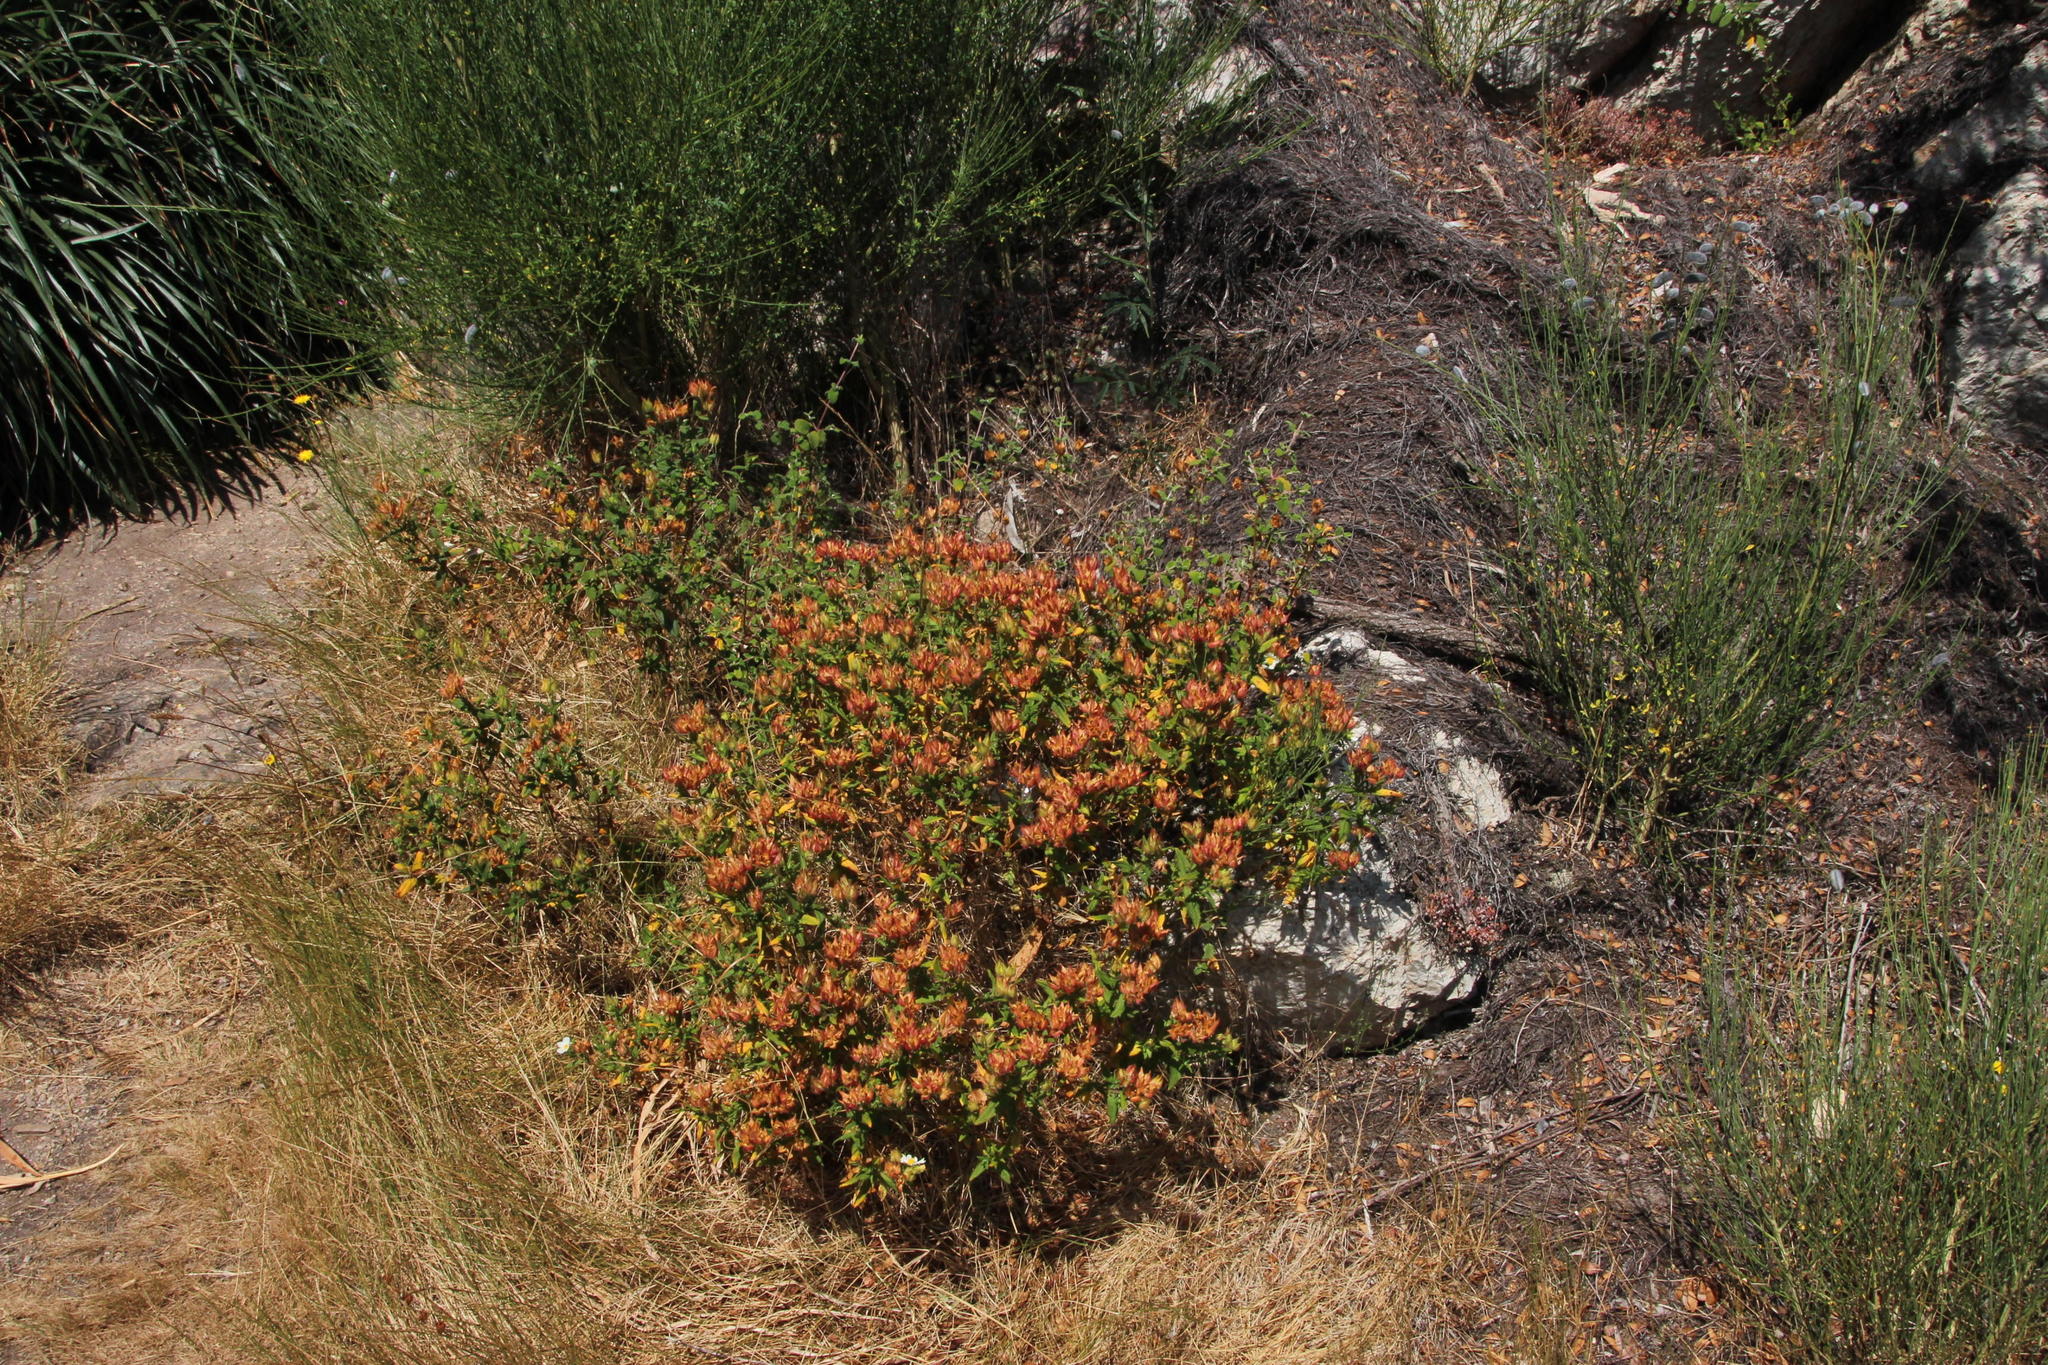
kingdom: Plantae
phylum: Tracheophyta
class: Magnoliopsida
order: Malvales
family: Cistaceae
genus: Cistus
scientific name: Cistus inflatus
